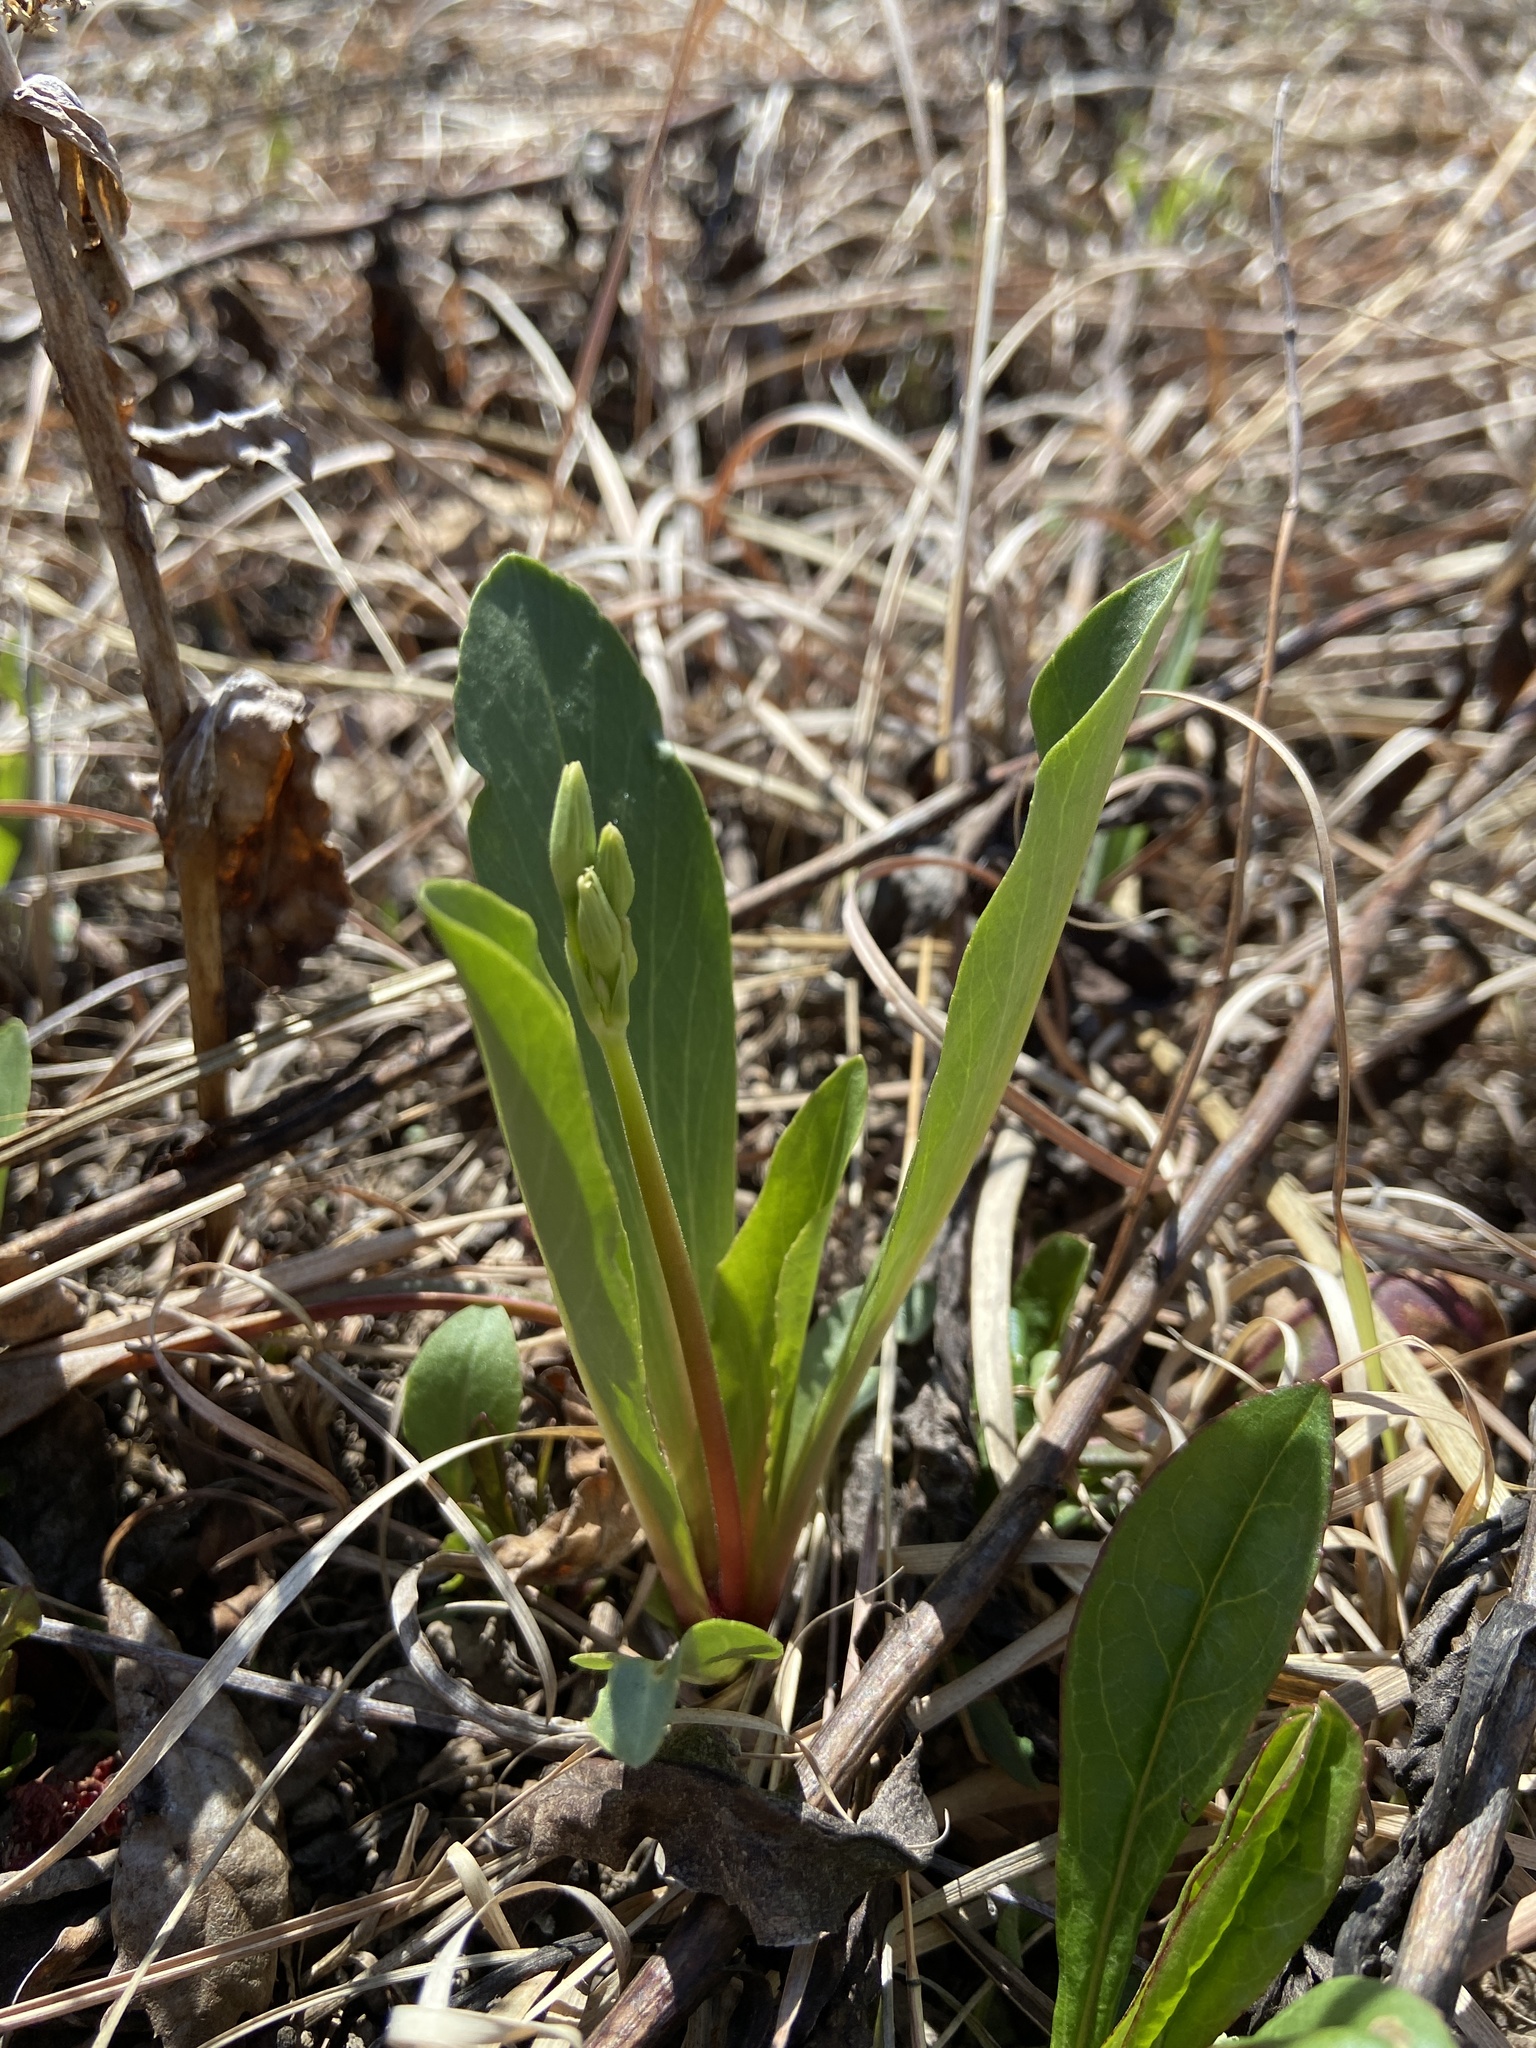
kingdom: Plantae
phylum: Tracheophyta
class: Magnoliopsida
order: Ericales
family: Primulaceae
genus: Dodecatheon
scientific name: Dodecatheon meadia
